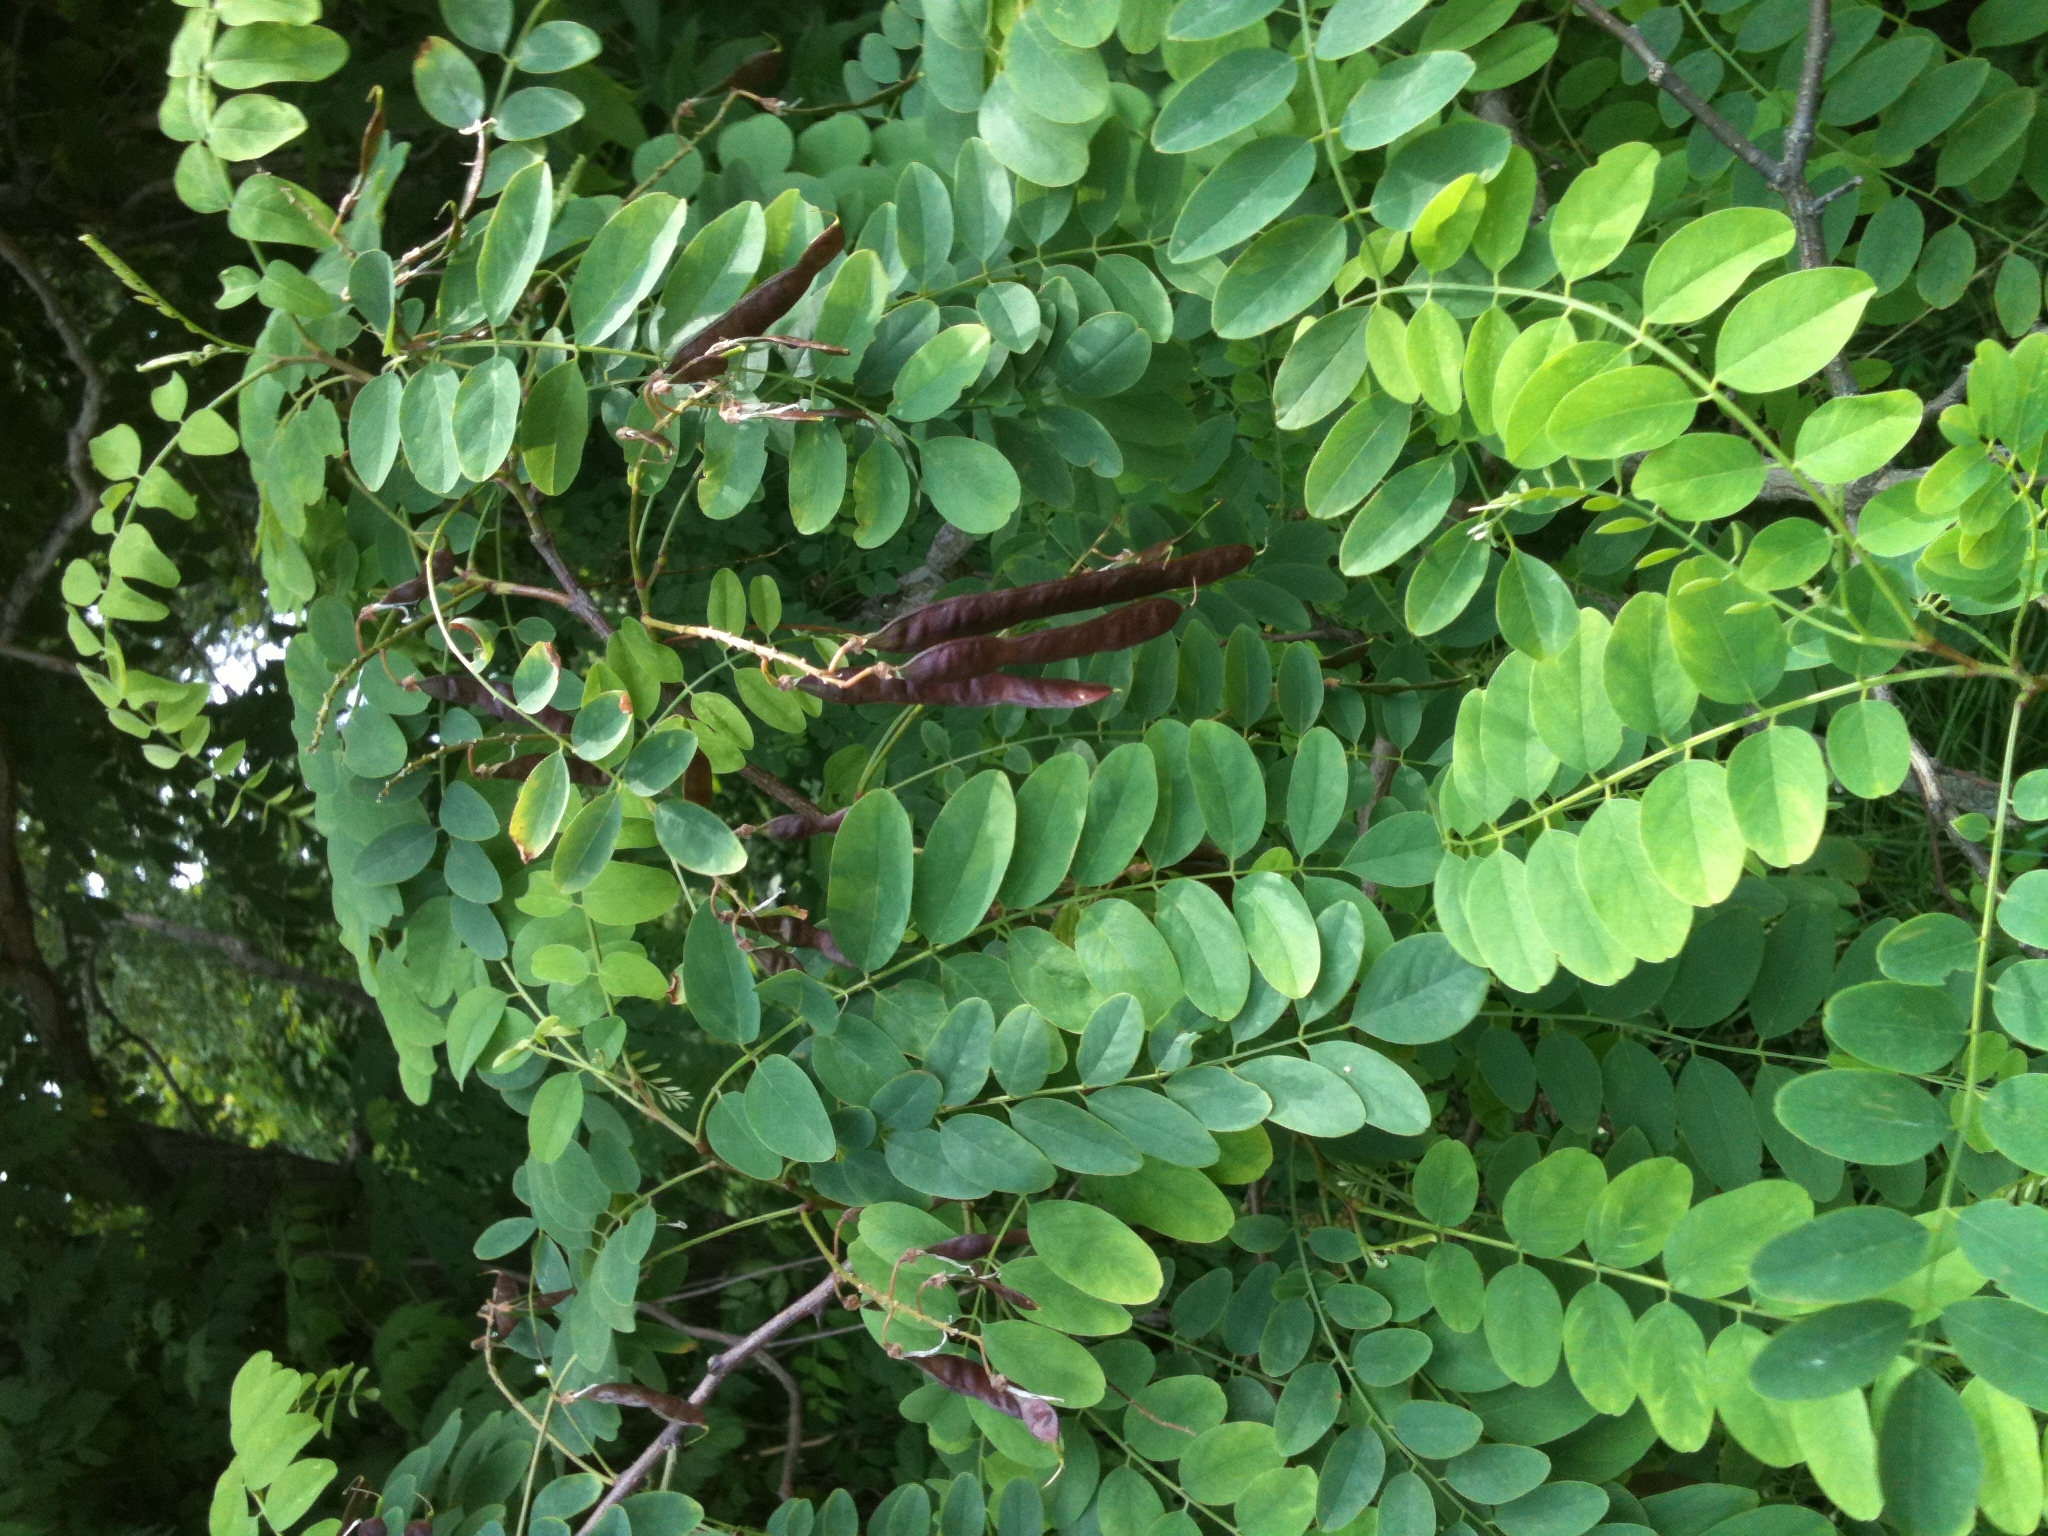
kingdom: Plantae
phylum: Tracheophyta
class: Magnoliopsida
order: Fabales
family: Fabaceae
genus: Robinia
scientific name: Robinia pseudoacacia
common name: Black locust
